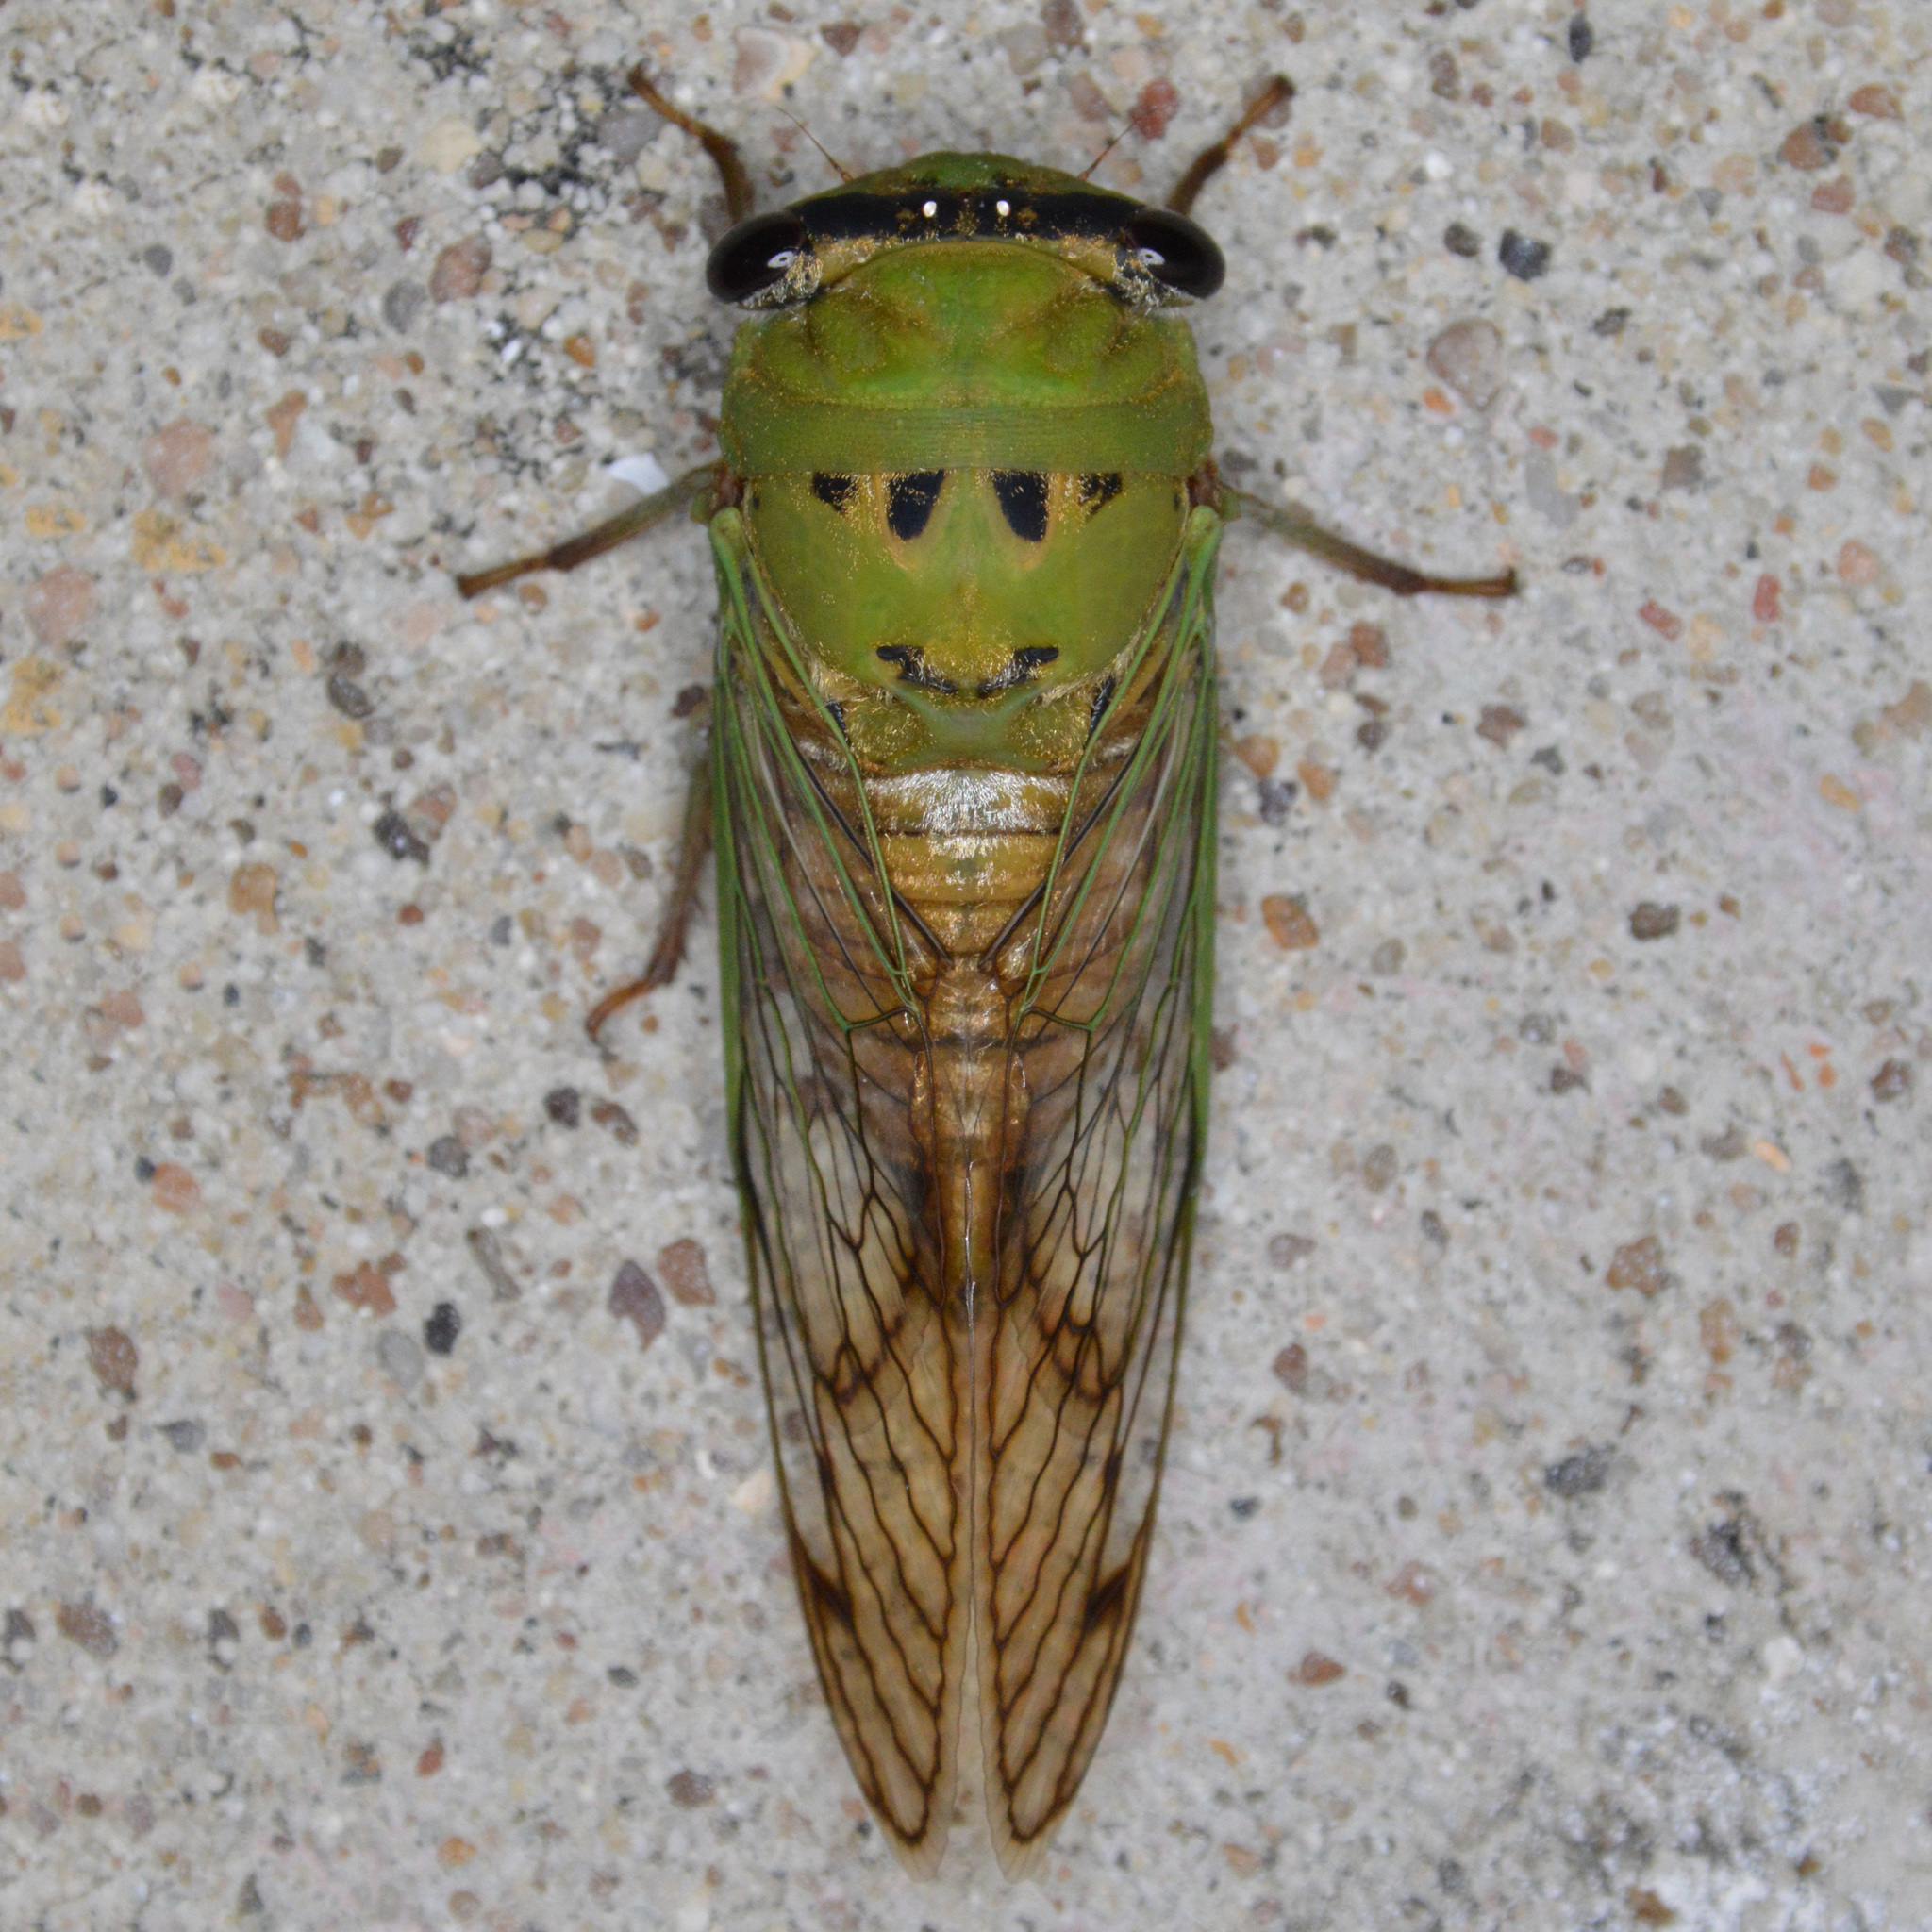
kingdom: Animalia
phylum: Arthropoda
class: Insecta
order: Hemiptera
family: Cicadidae
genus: Neotibicen
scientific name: Neotibicen superbus
